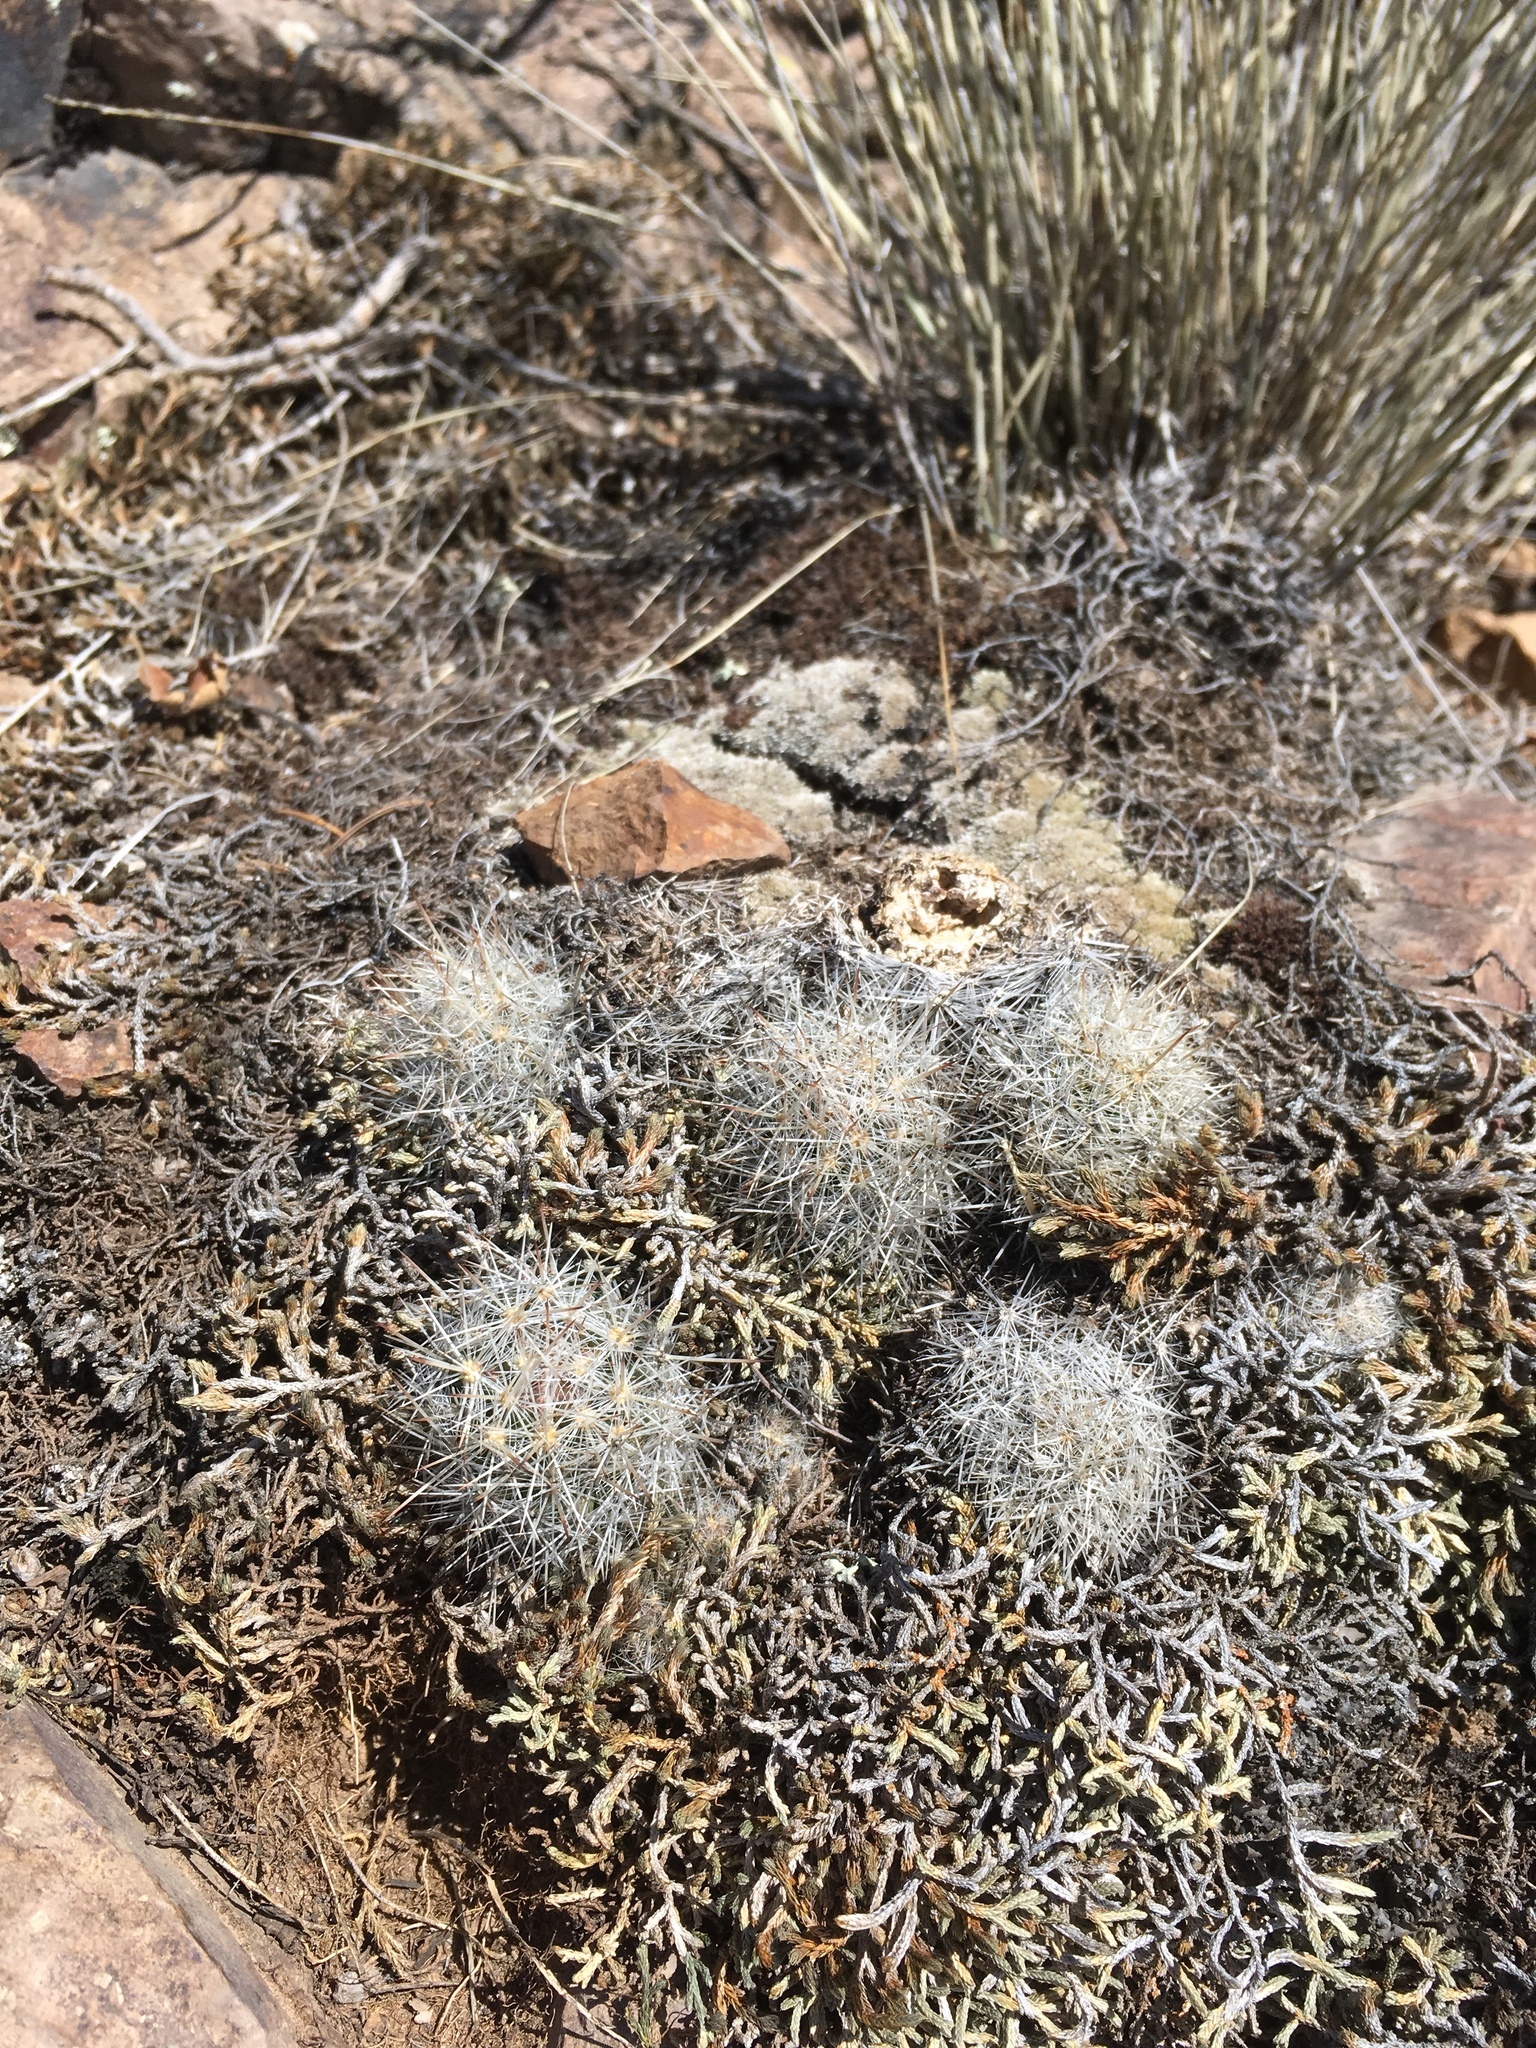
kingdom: Plantae
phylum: Tracheophyta
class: Magnoliopsida
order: Caryophyllales
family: Cactaceae
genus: Pelecyphora
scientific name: Pelecyphora sneedii
